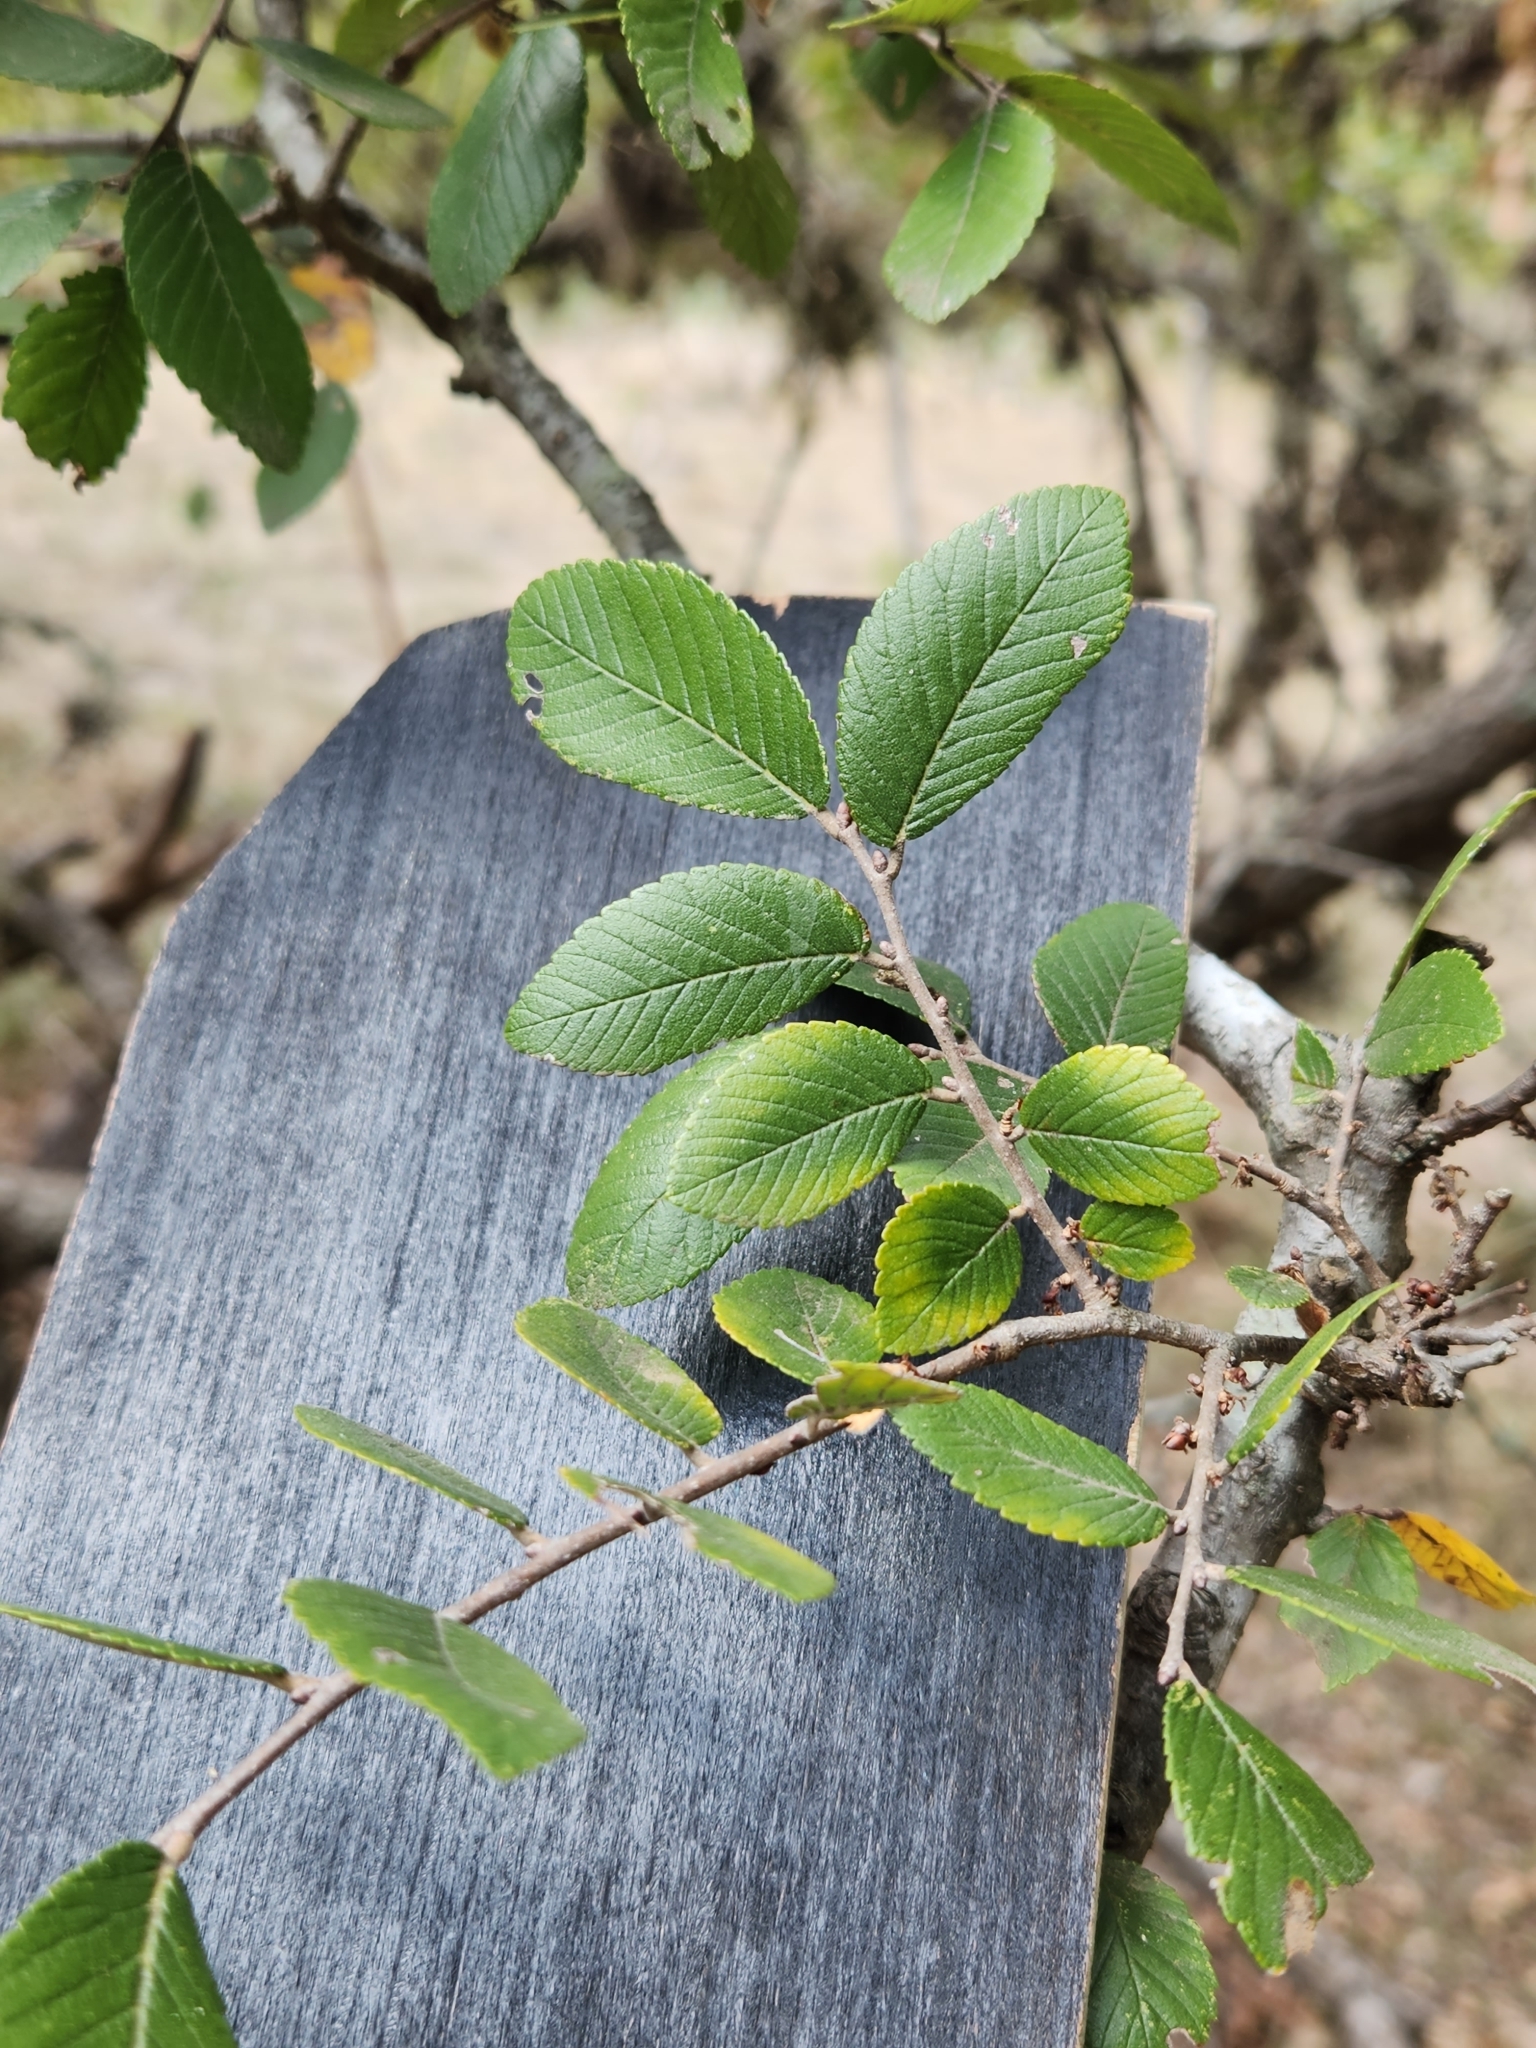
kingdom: Plantae
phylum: Tracheophyta
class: Magnoliopsida
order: Rosales
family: Ulmaceae
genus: Ulmus
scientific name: Ulmus crassifolia
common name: Basket elm
